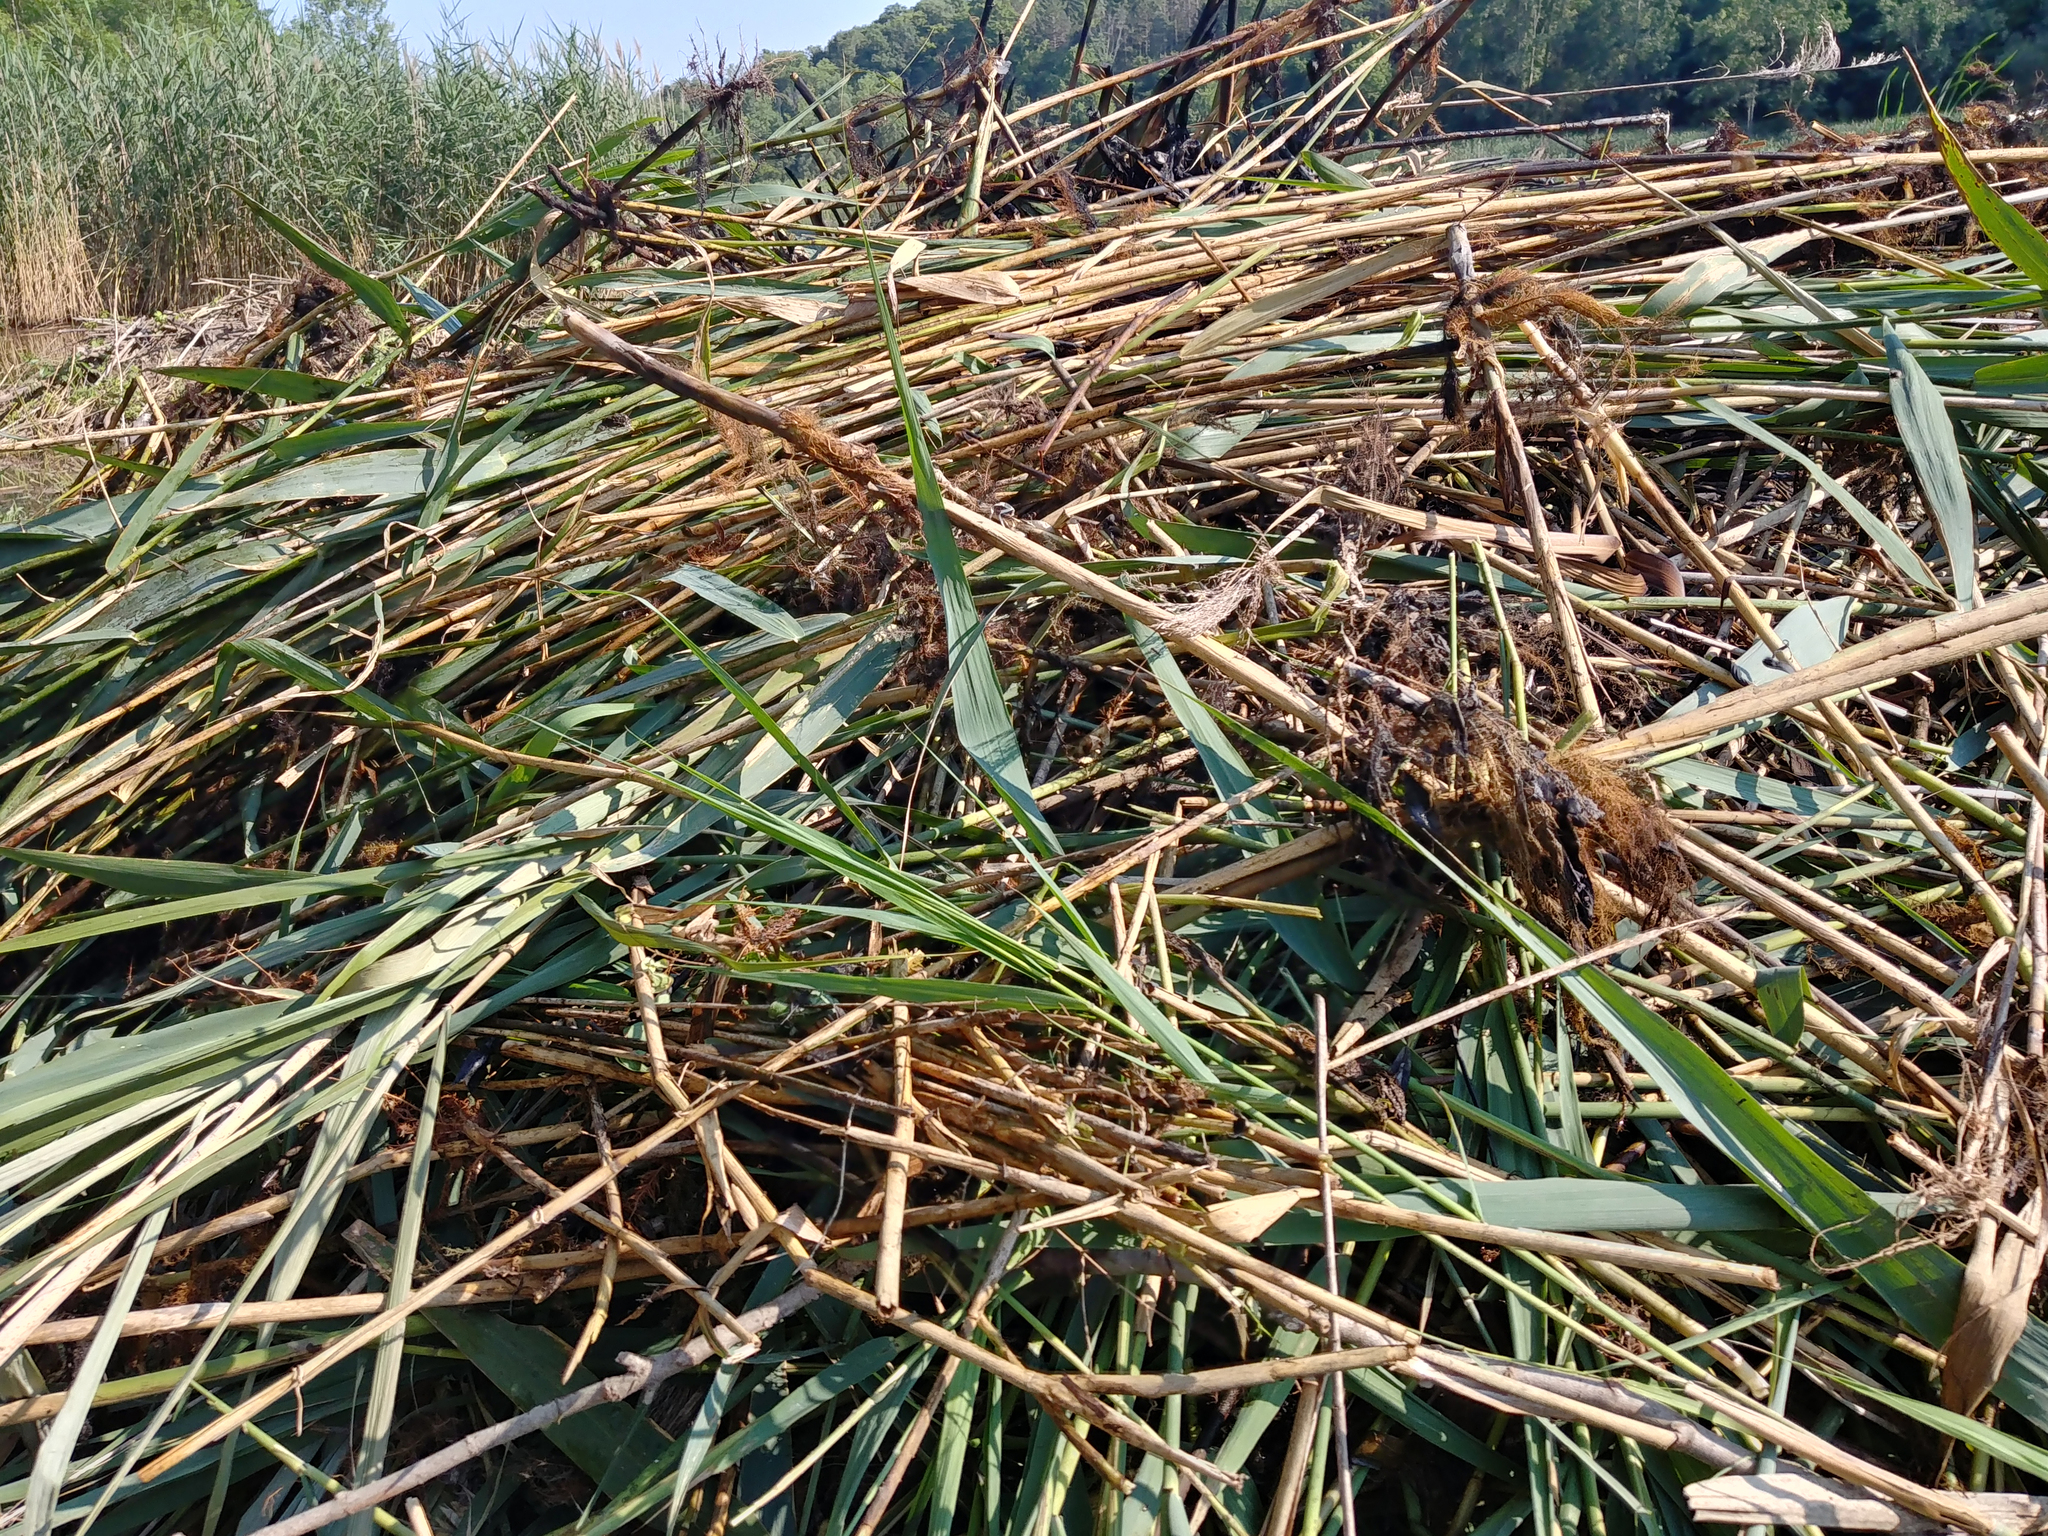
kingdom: Plantae
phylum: Tracheophyta
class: Liliopsida
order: Poales
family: Poaceae
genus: Phragmites
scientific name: Phragmites australis
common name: Common reed
